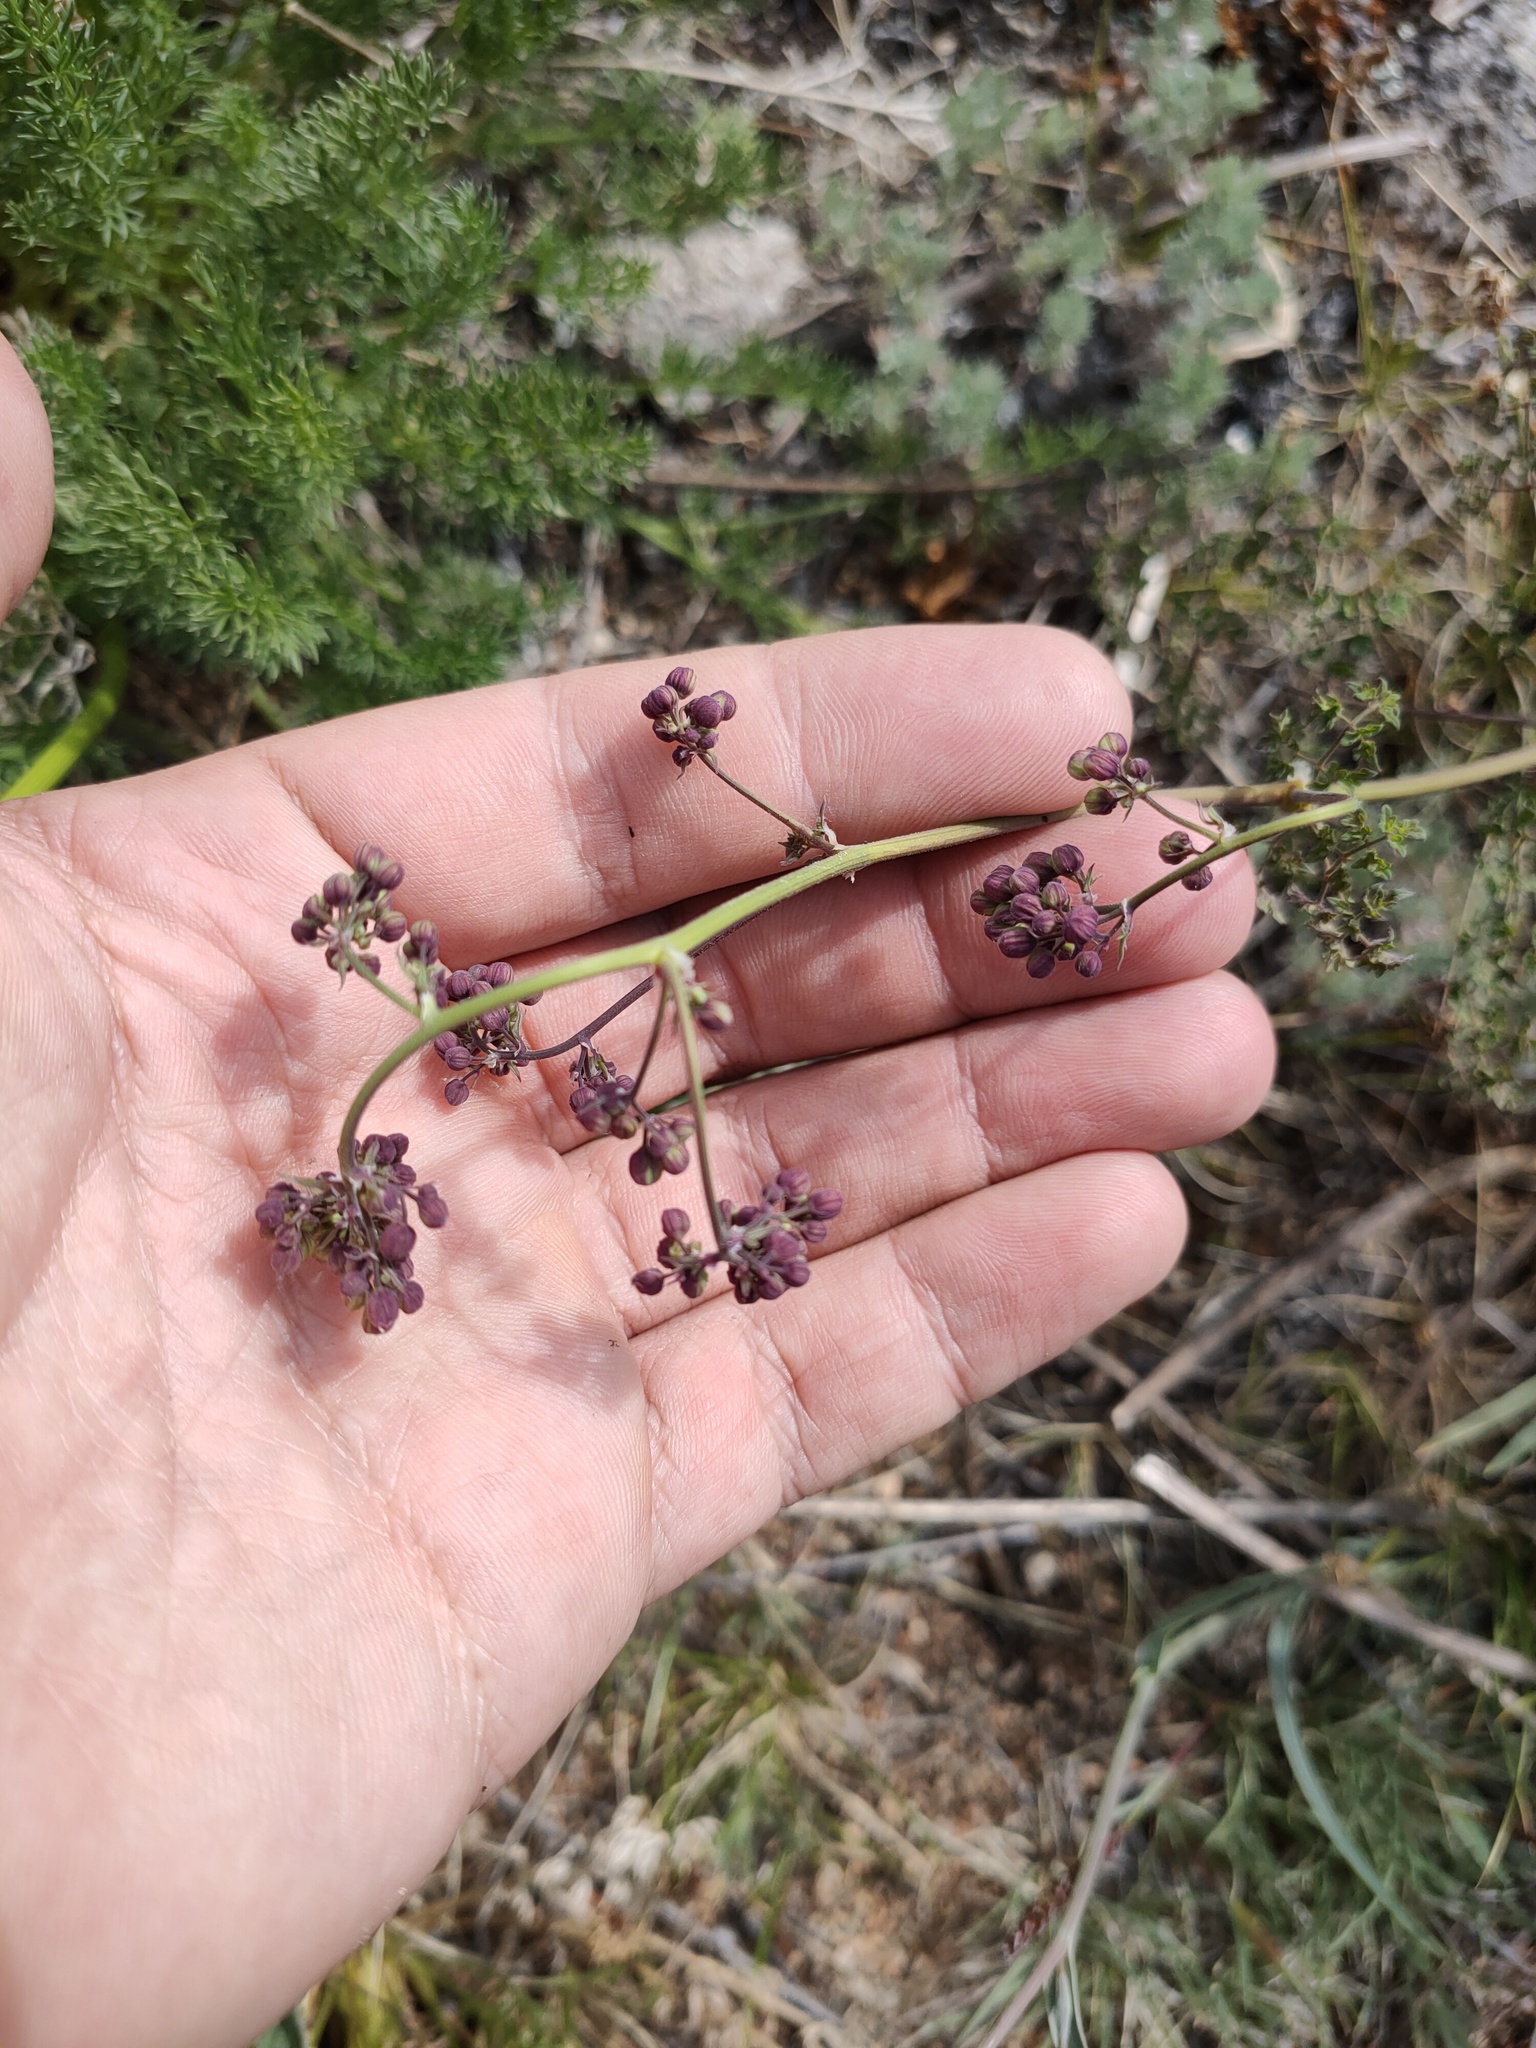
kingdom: Plantae
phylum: Tracheophyta
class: Magnoliopsida
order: Ranunculales
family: Ranunculaceae
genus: Thalictrum
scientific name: Thalictrum foetidum
